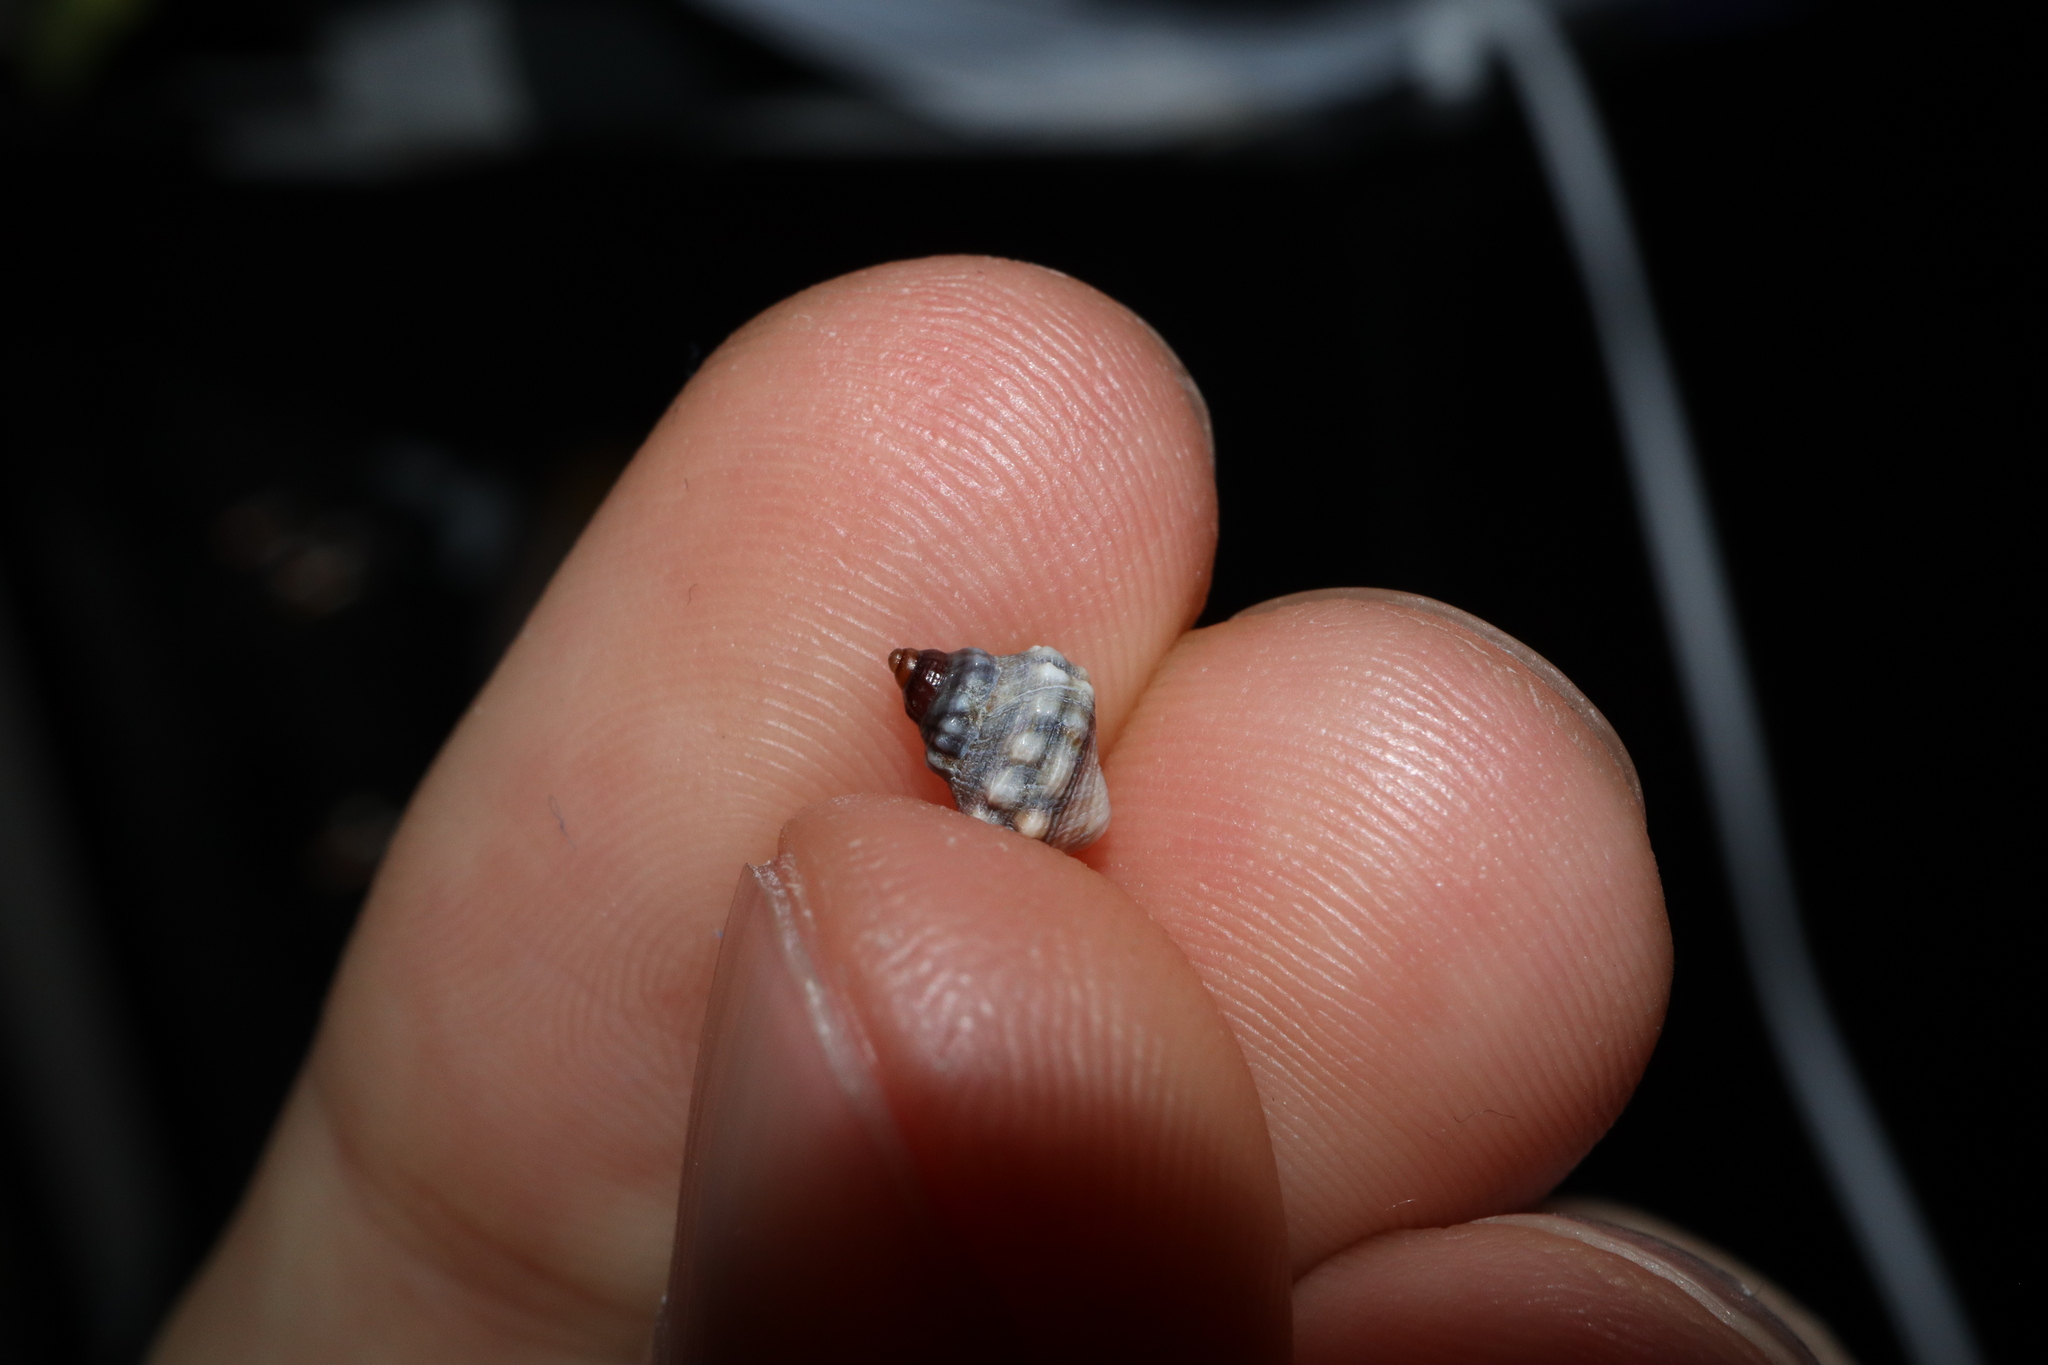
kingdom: Animalia
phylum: Mollusca
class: Gastropoda
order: Littorinimorpha
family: Littorinidae
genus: Nodilittorina
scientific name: Nodilittorina pyramidalis
